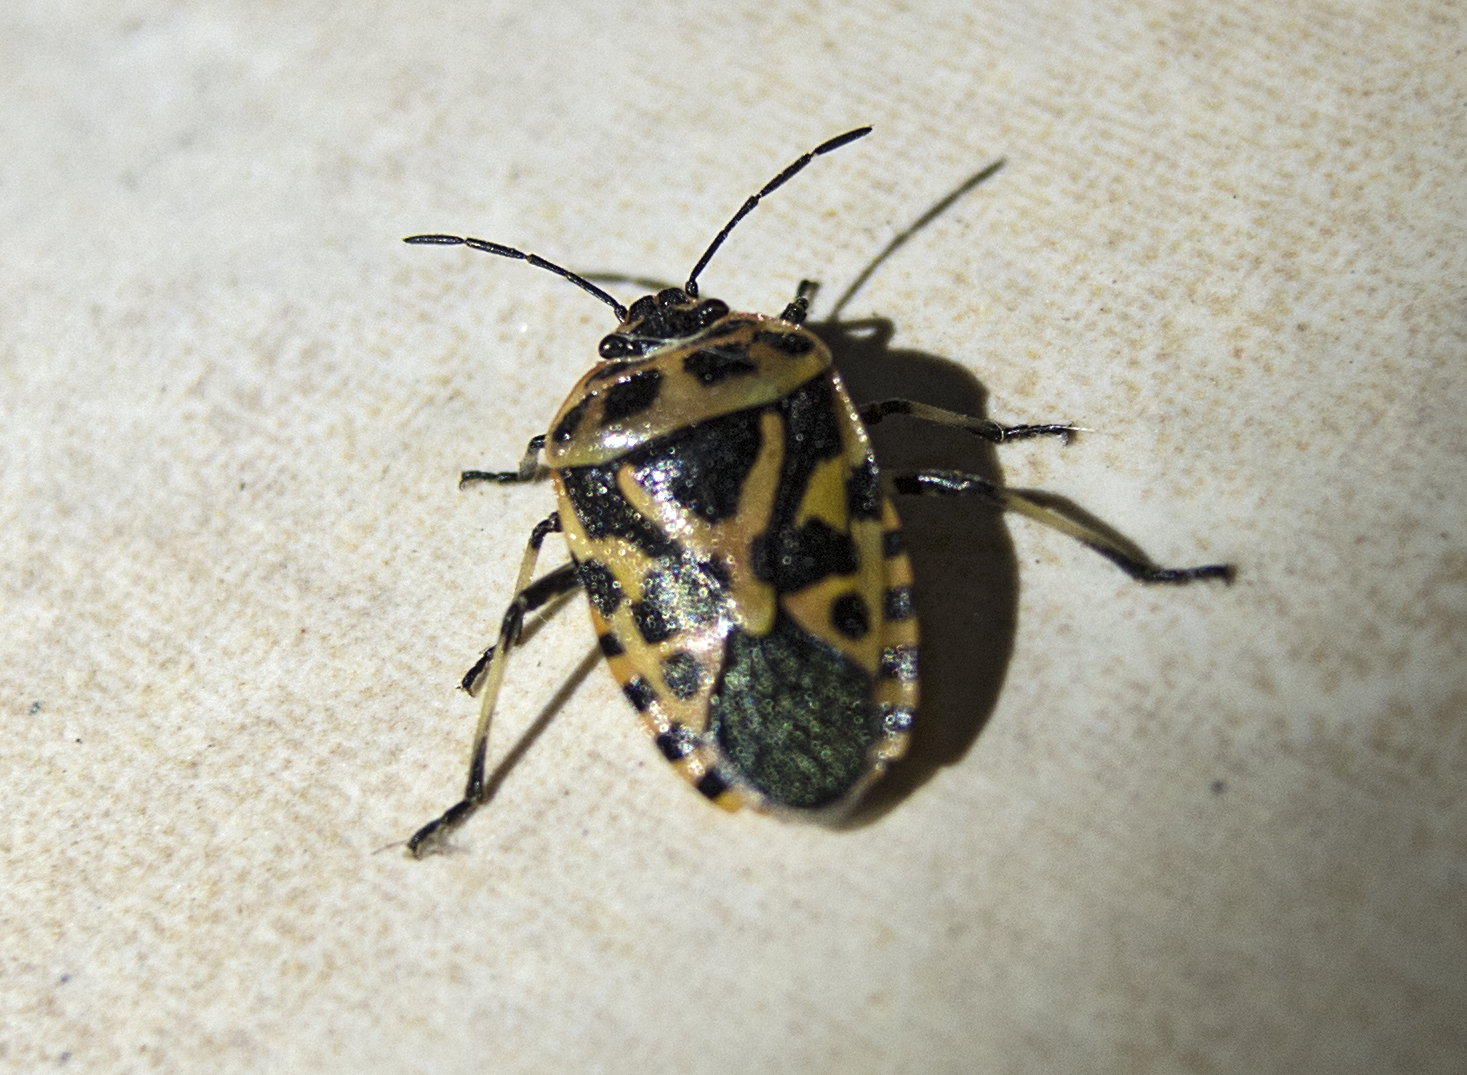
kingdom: Animalia
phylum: Arthropoda
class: Insecta
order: Hemiptera
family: Pentatomidae
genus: Eurydema
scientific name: Eurydema ventralis
